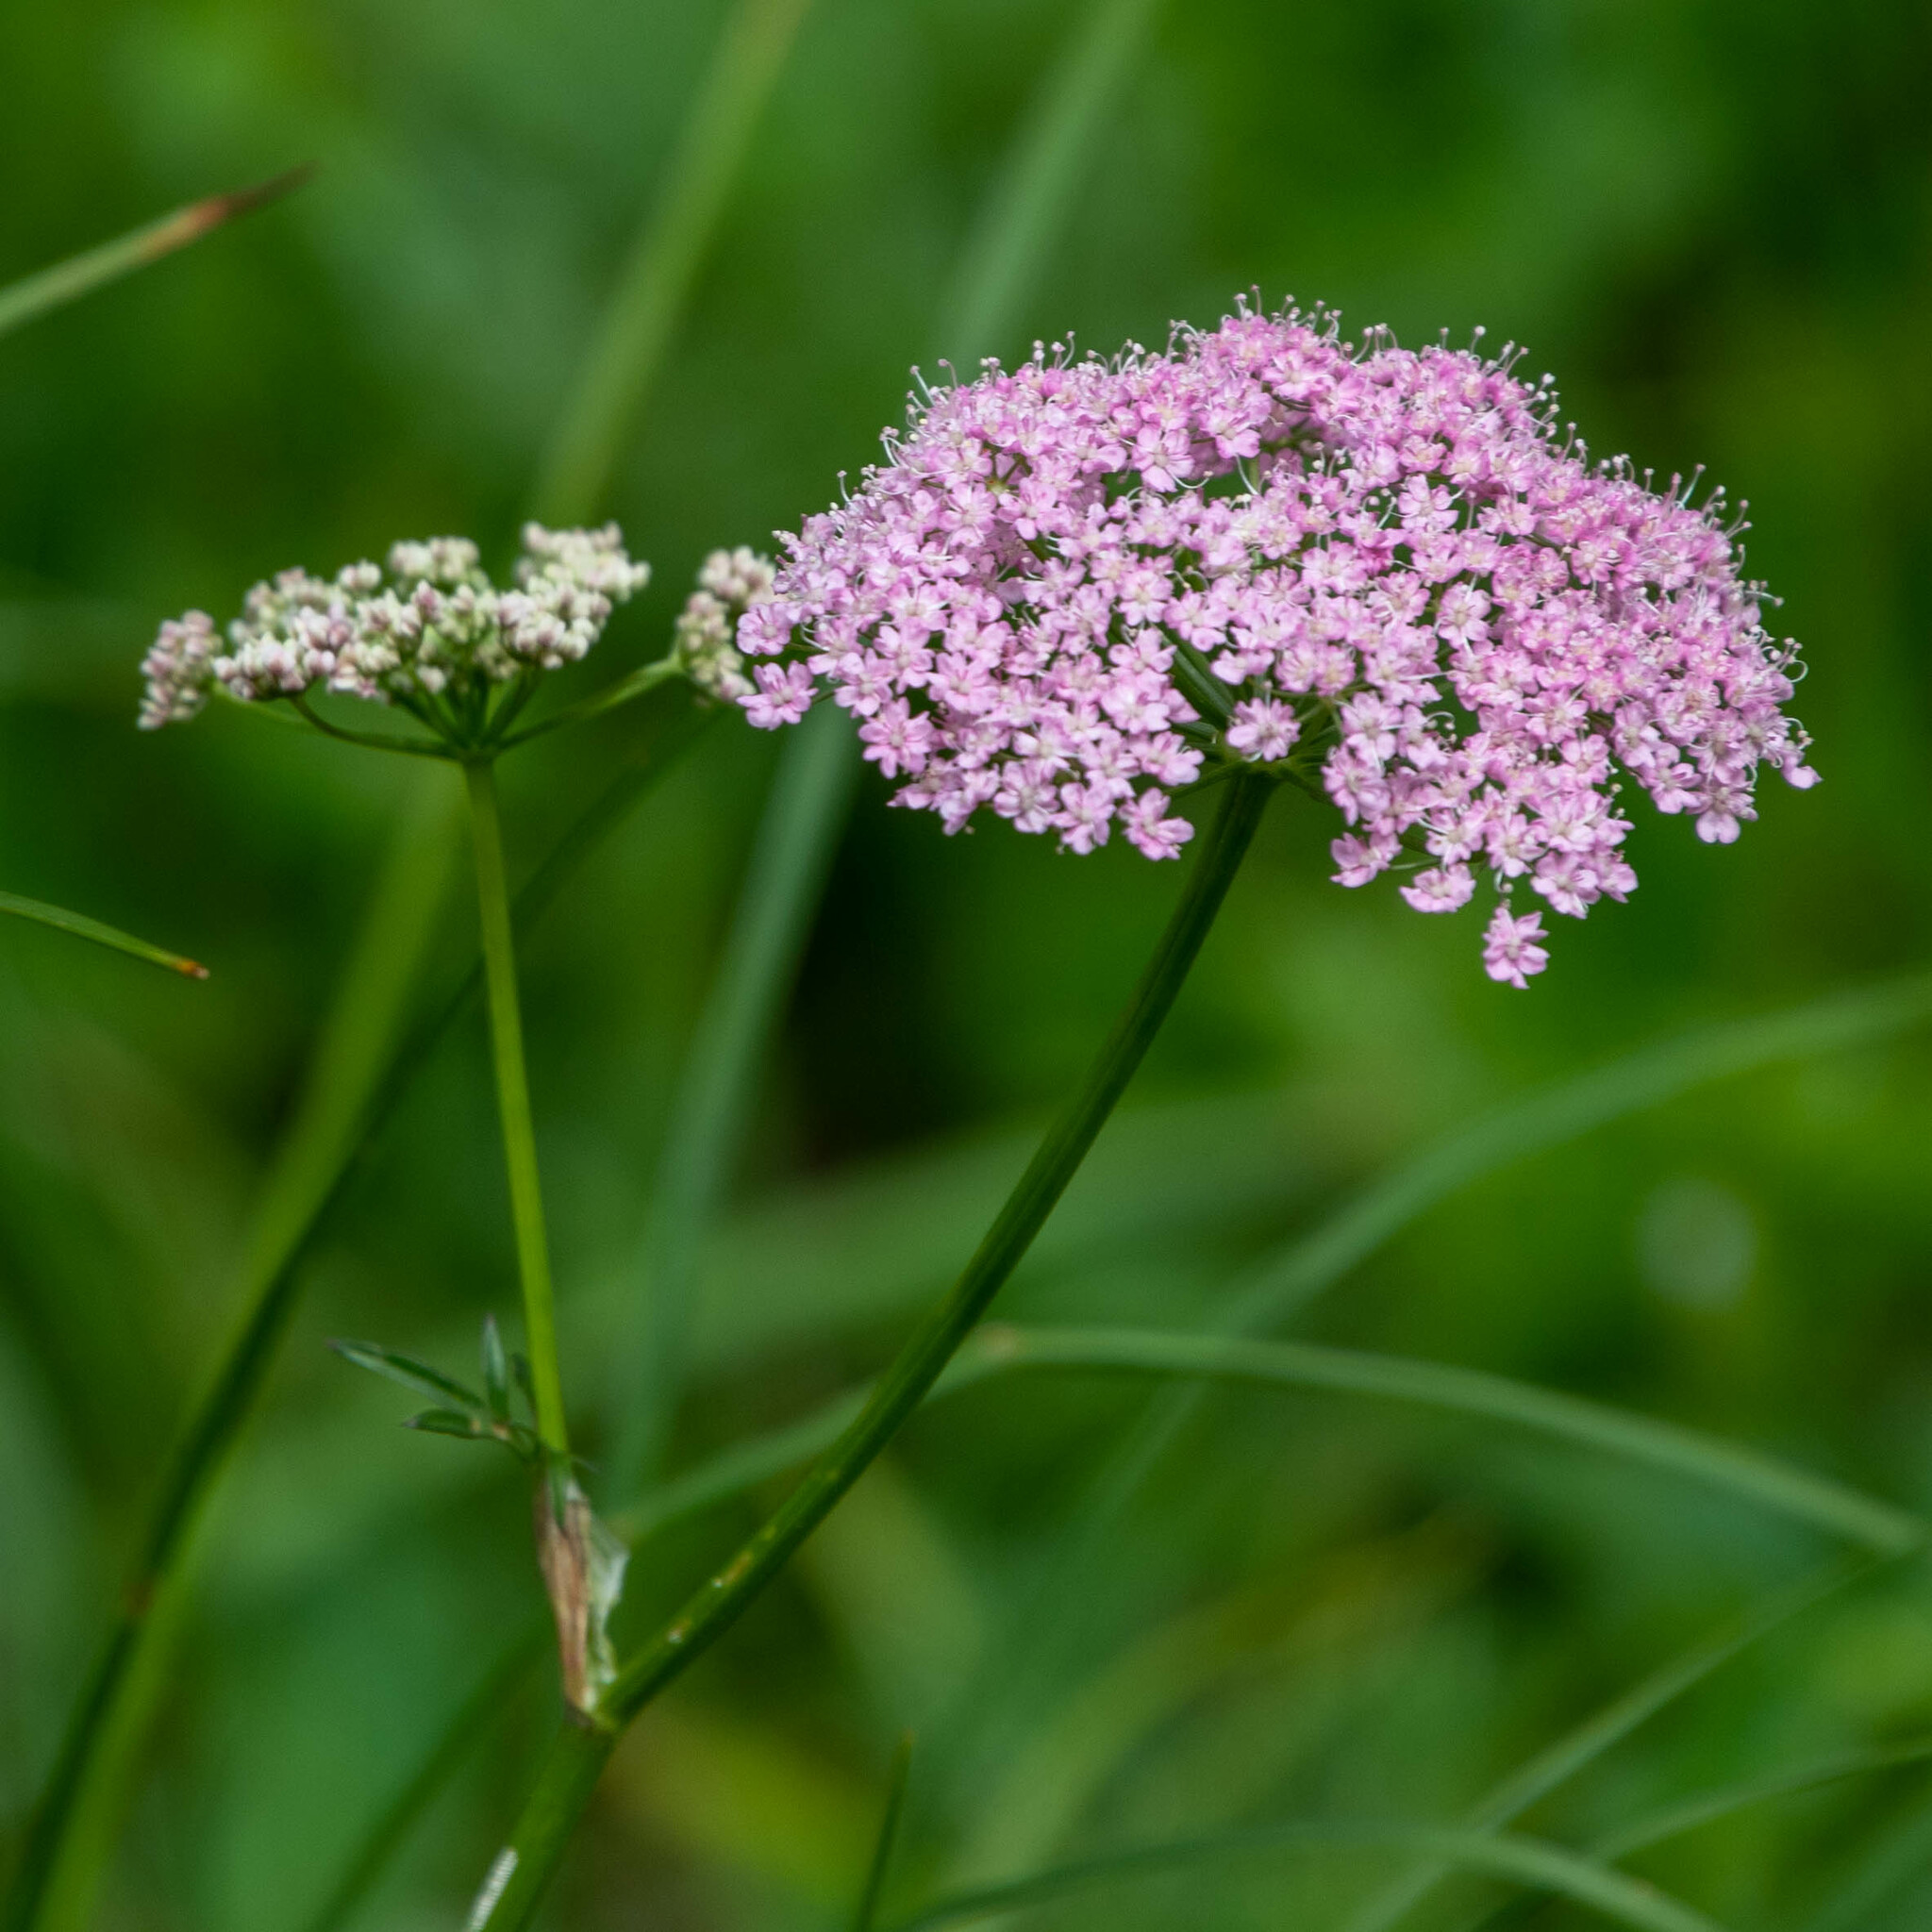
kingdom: Plantae
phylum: Tracheophyta
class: Magnoliopsida
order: Apiales
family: Apiaceae
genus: Pimpinella
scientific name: Pimpinella major
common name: Greater burnet-saxifrage
